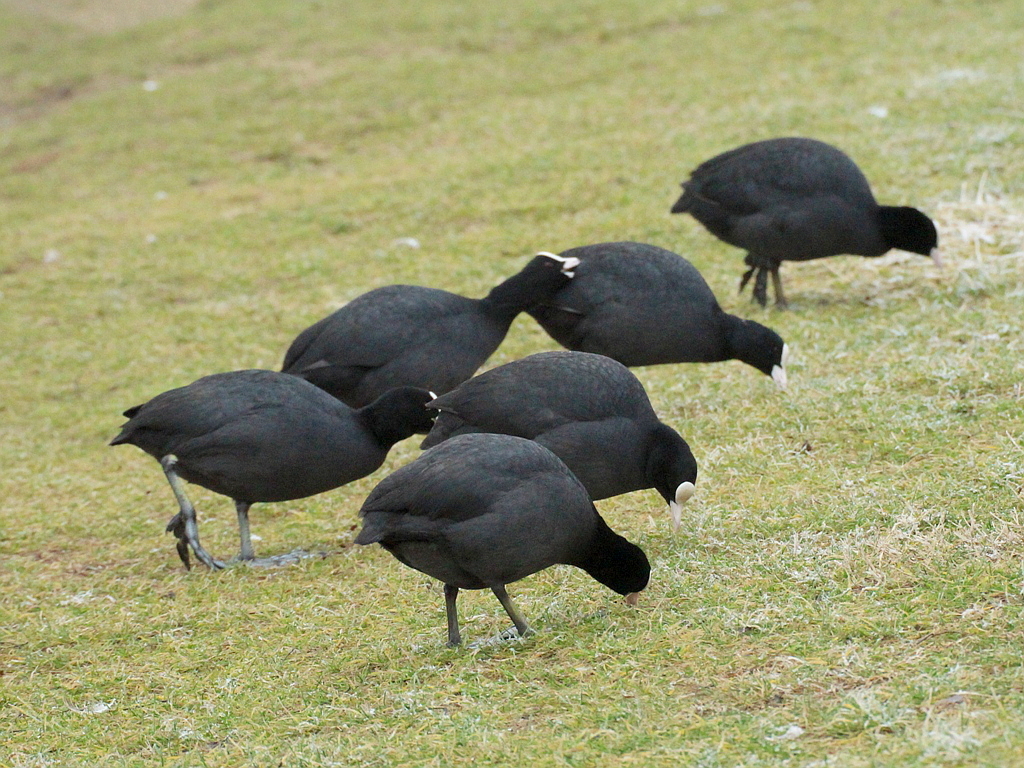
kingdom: Animalia
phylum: Chordata
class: Aves
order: Gruiformes
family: Rallidae
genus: Fulica
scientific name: Fulica atra
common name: Eurasian coot
